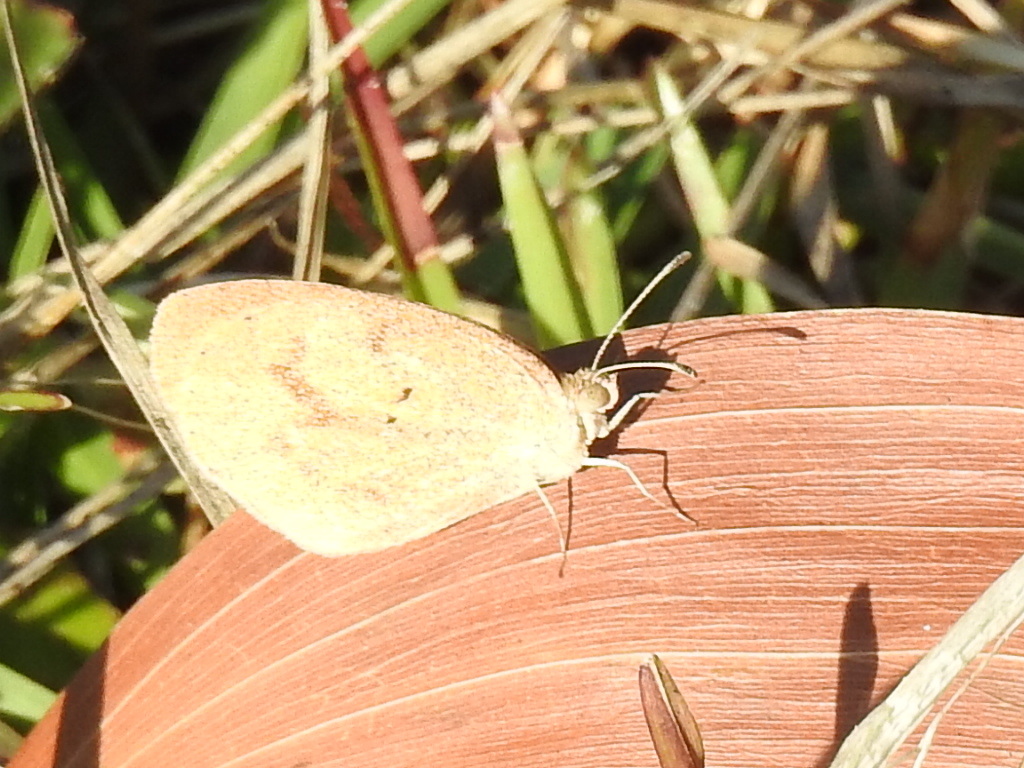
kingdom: Animalia
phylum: Arthropoda
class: Insecta
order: Lepidoptera
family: Pieridae
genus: Eurema
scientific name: Eurema daira
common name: Barred sulphur
